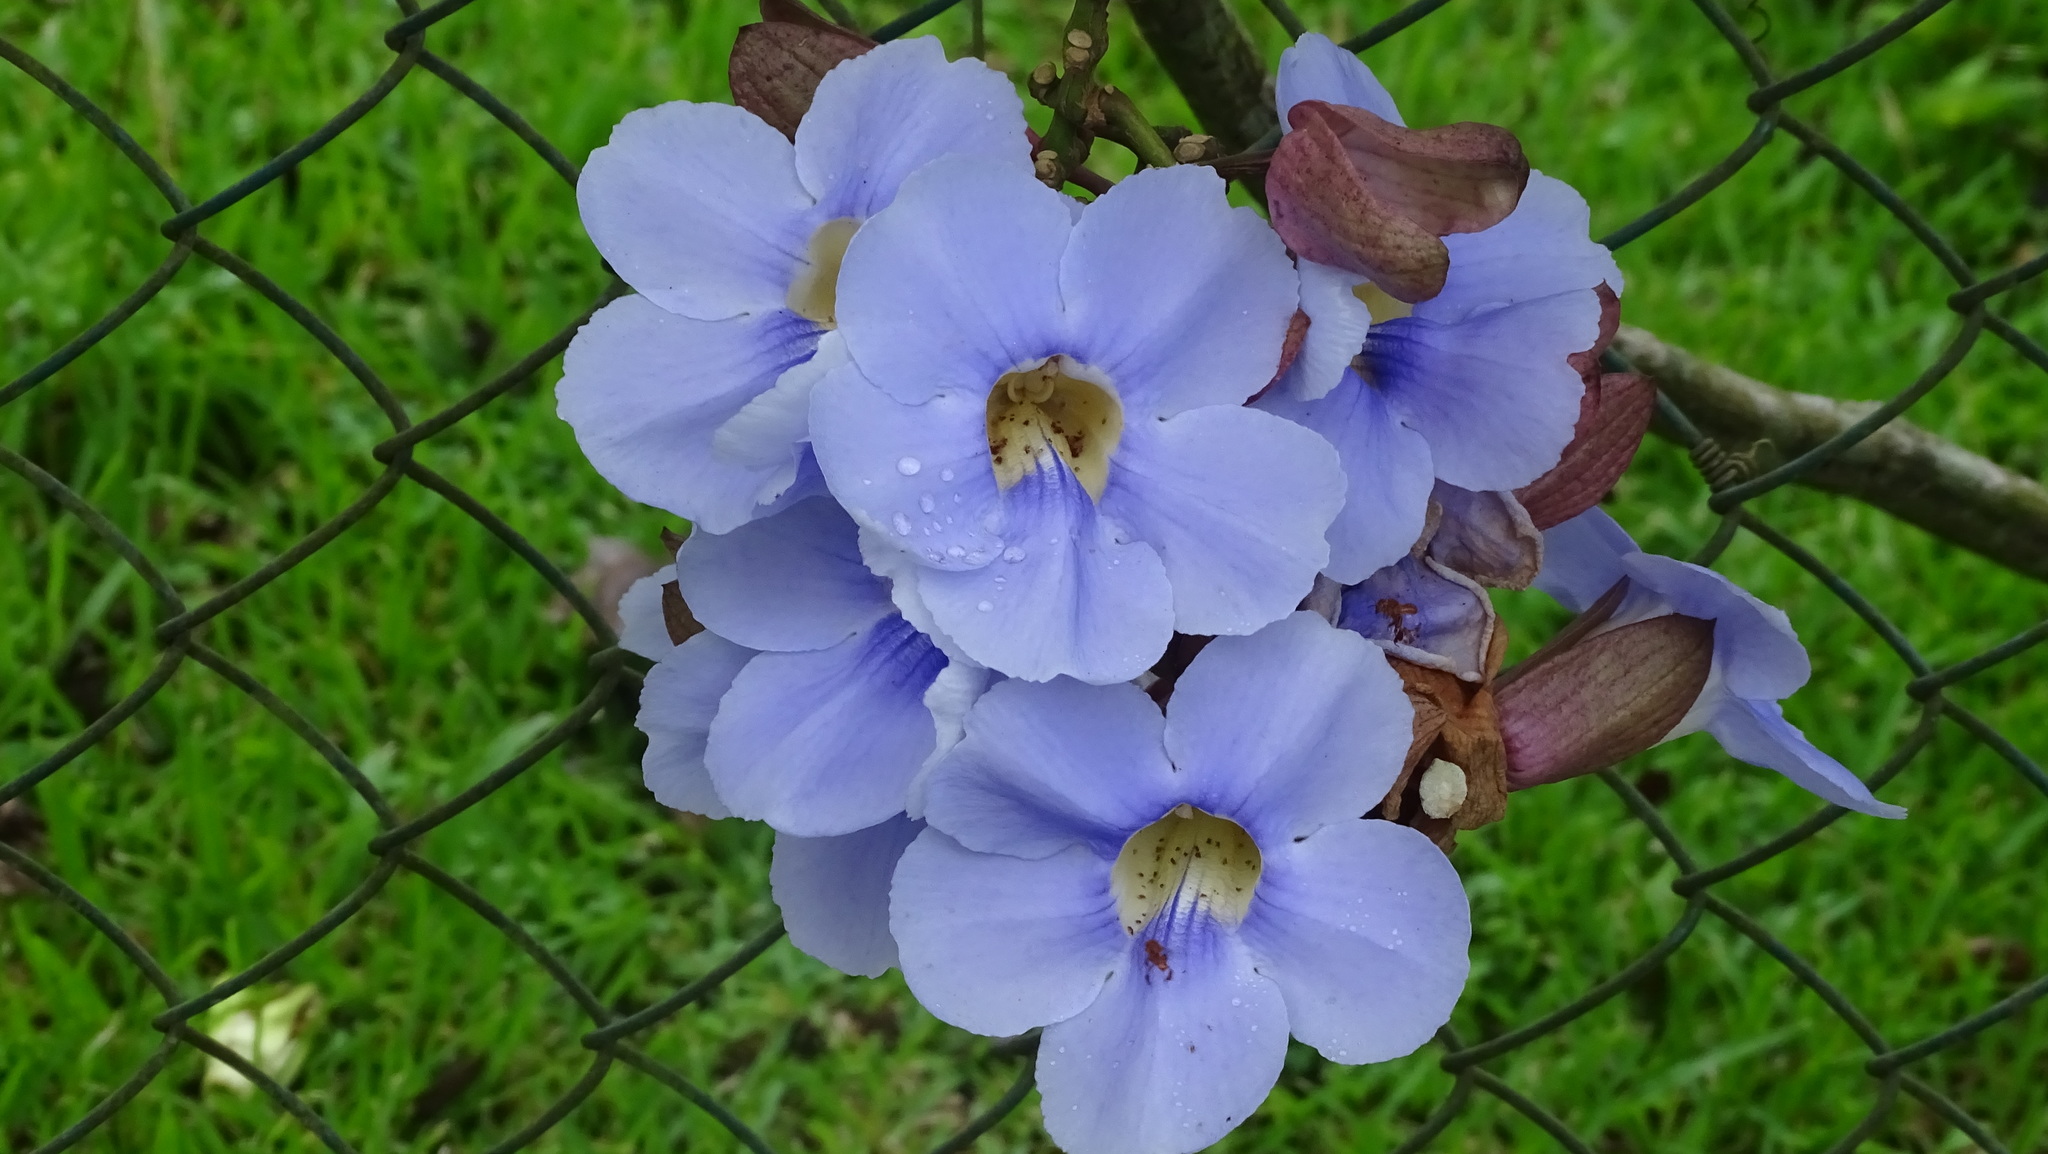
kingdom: Plantae
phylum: Tracheophyta
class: Magnoliopsida
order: Lamiales
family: Acanthaceae
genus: Thunbergia
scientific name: Thunbergia grandiflora
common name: Bengal trumpet
